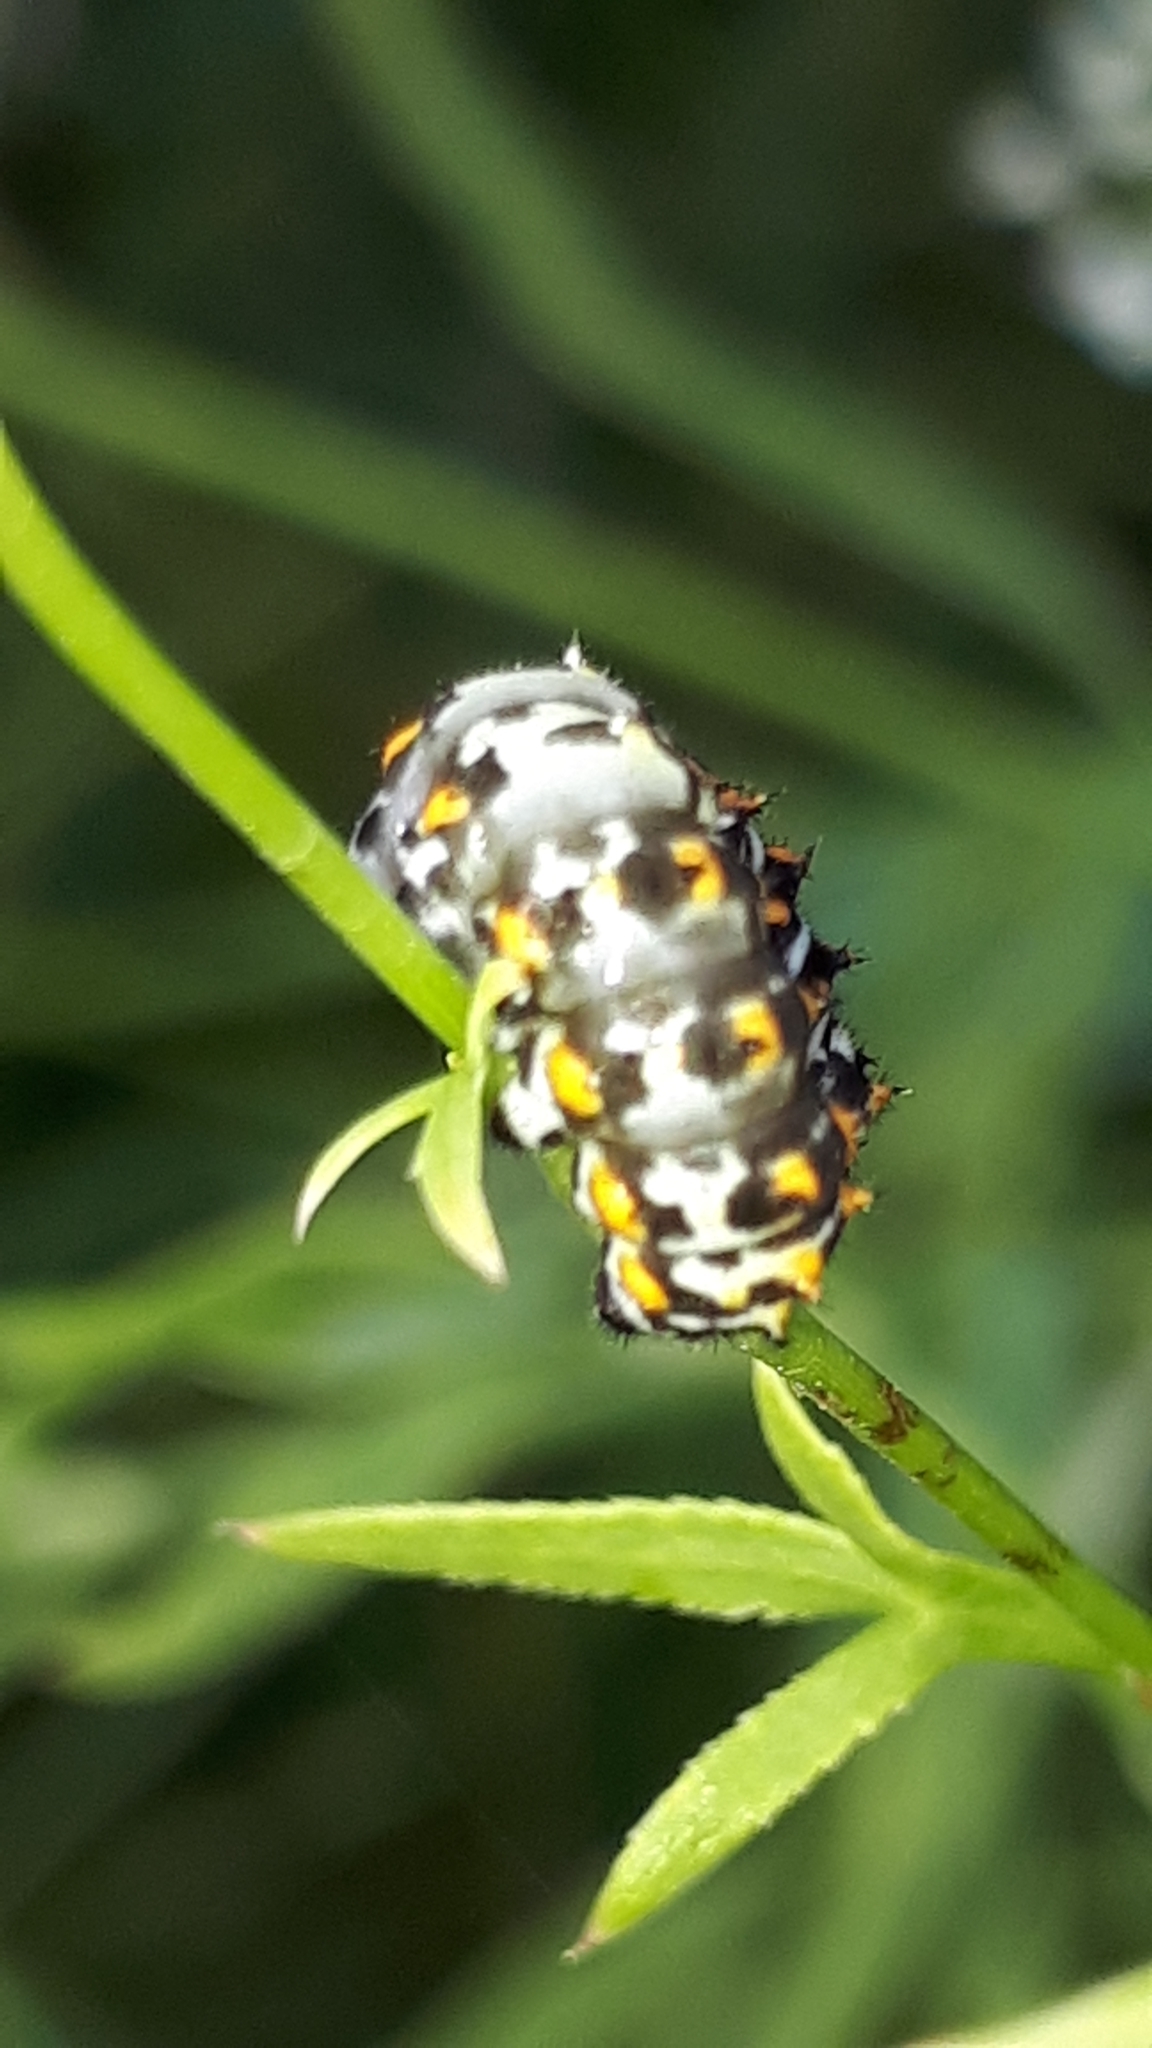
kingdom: Animalia
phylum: Arthropoda
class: Insecta
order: Lepidoptera
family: Papilionidae
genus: Papilio
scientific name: Papilio machaon
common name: Swallowtail
